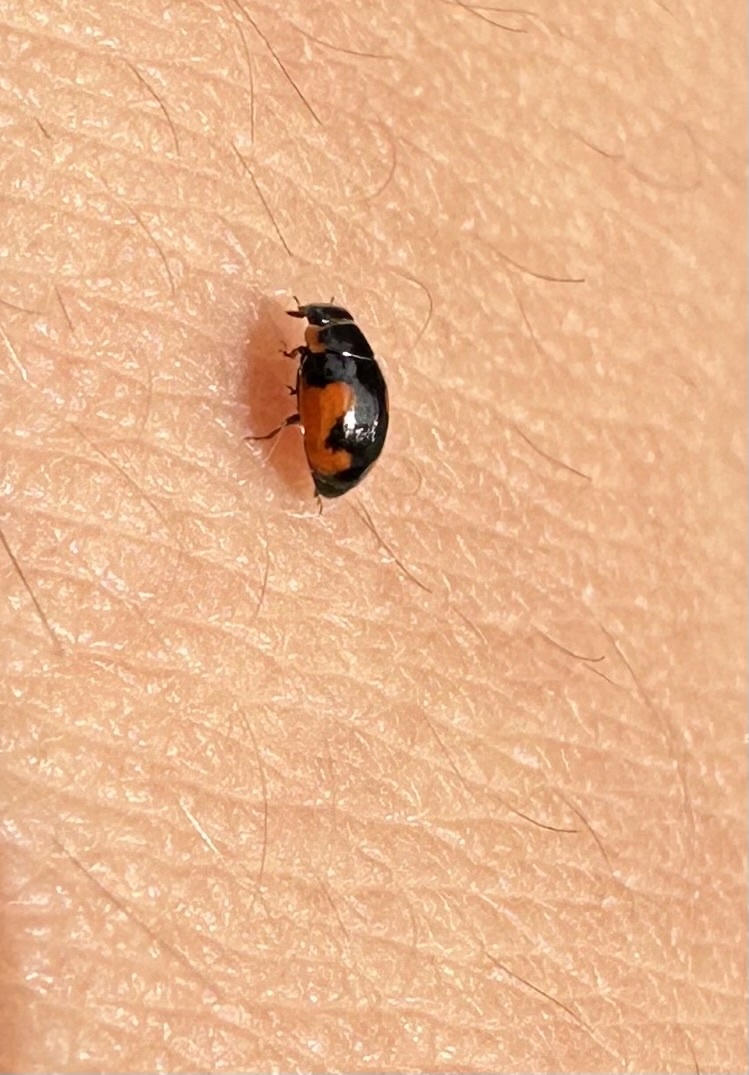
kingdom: Animalia
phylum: Arthropoda
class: Insecta
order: Coleoptera
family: Coccinellidae
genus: Hyperaspis
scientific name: Hyperaspis
